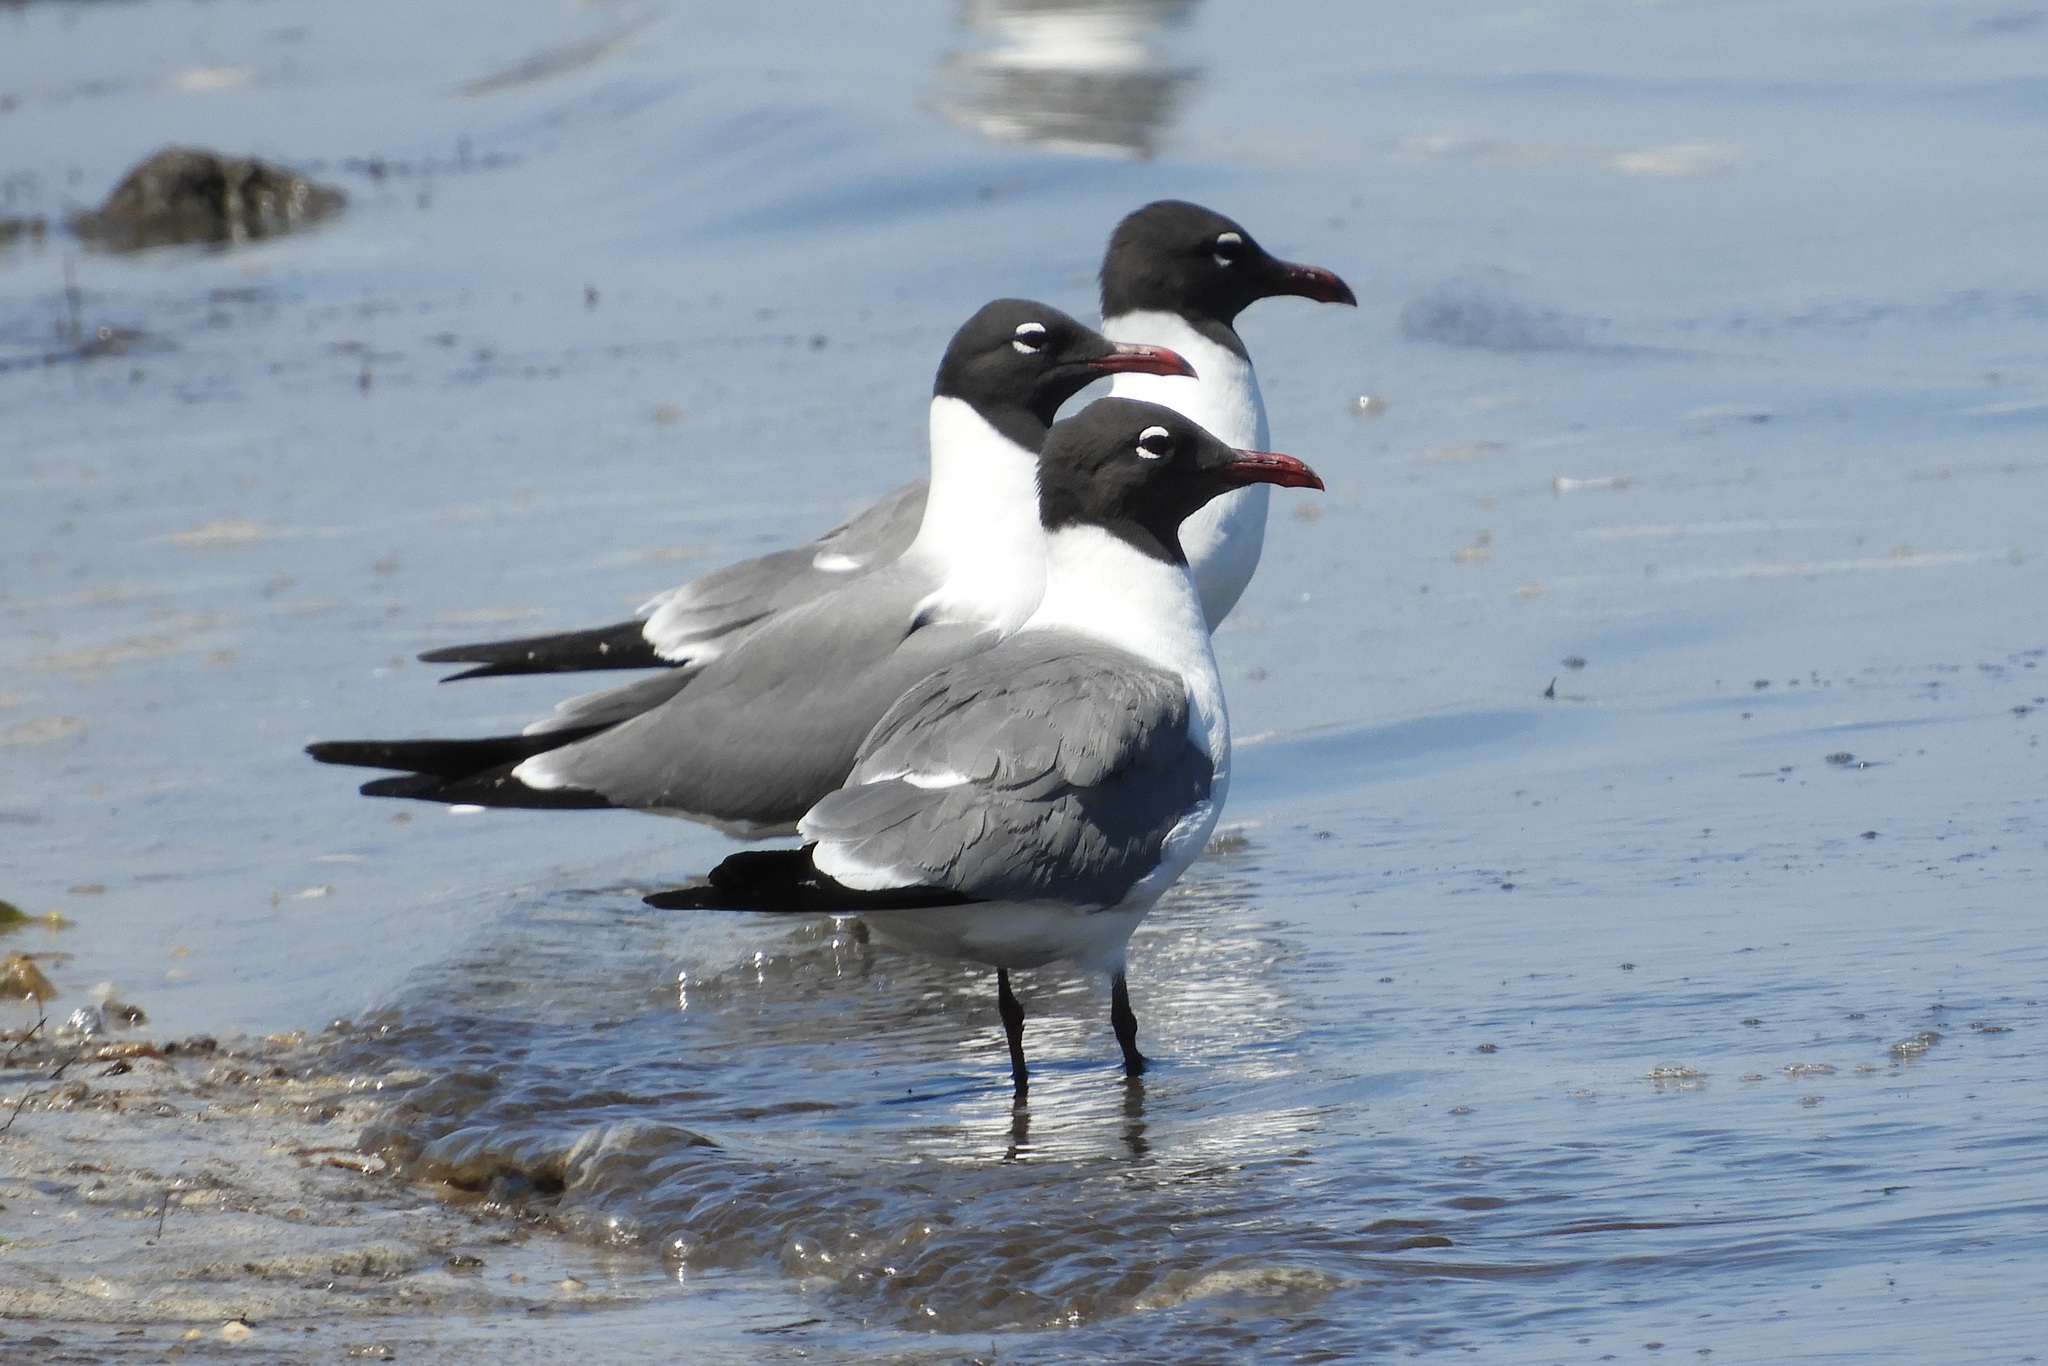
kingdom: Animalia
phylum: Chordata
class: Aves
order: Charadriiformes
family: Laridae
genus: Leucophaeus
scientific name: Leucophaeus atricilla
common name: Laughing gull
